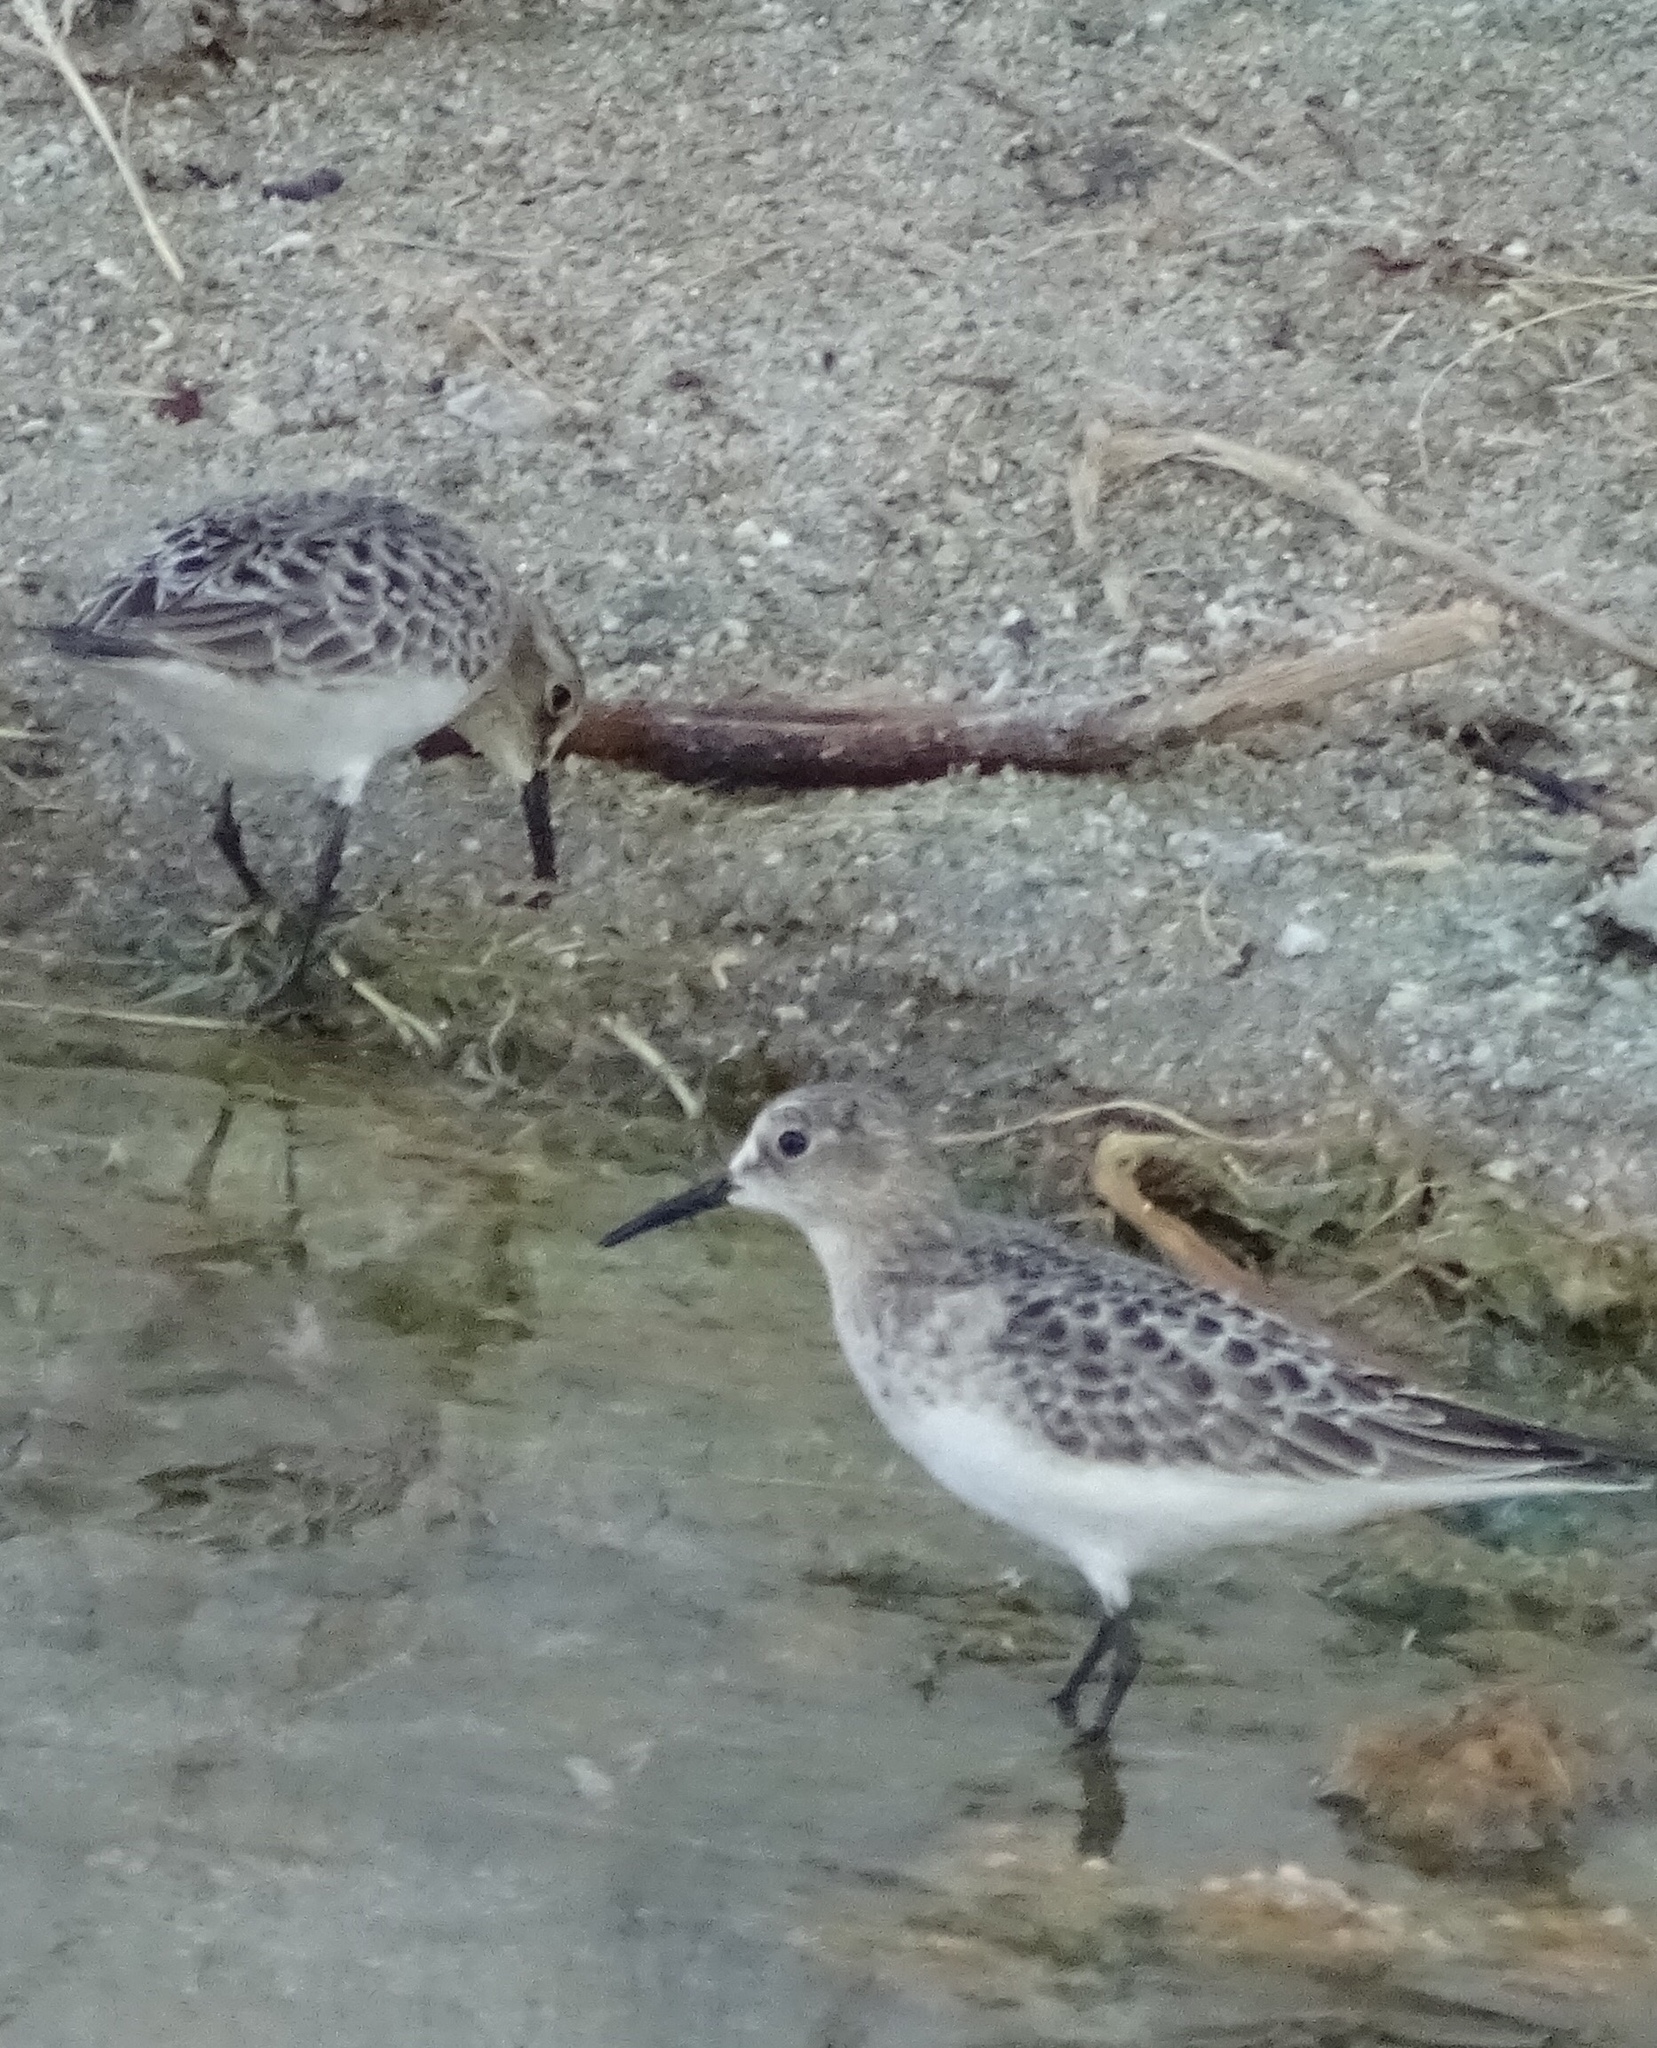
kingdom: Animalia
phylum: Chordata
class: Aves
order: Charadriiformes
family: Scolopacidae
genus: Calidris
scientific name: Calidris bairdii
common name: Baird's sandpiper
